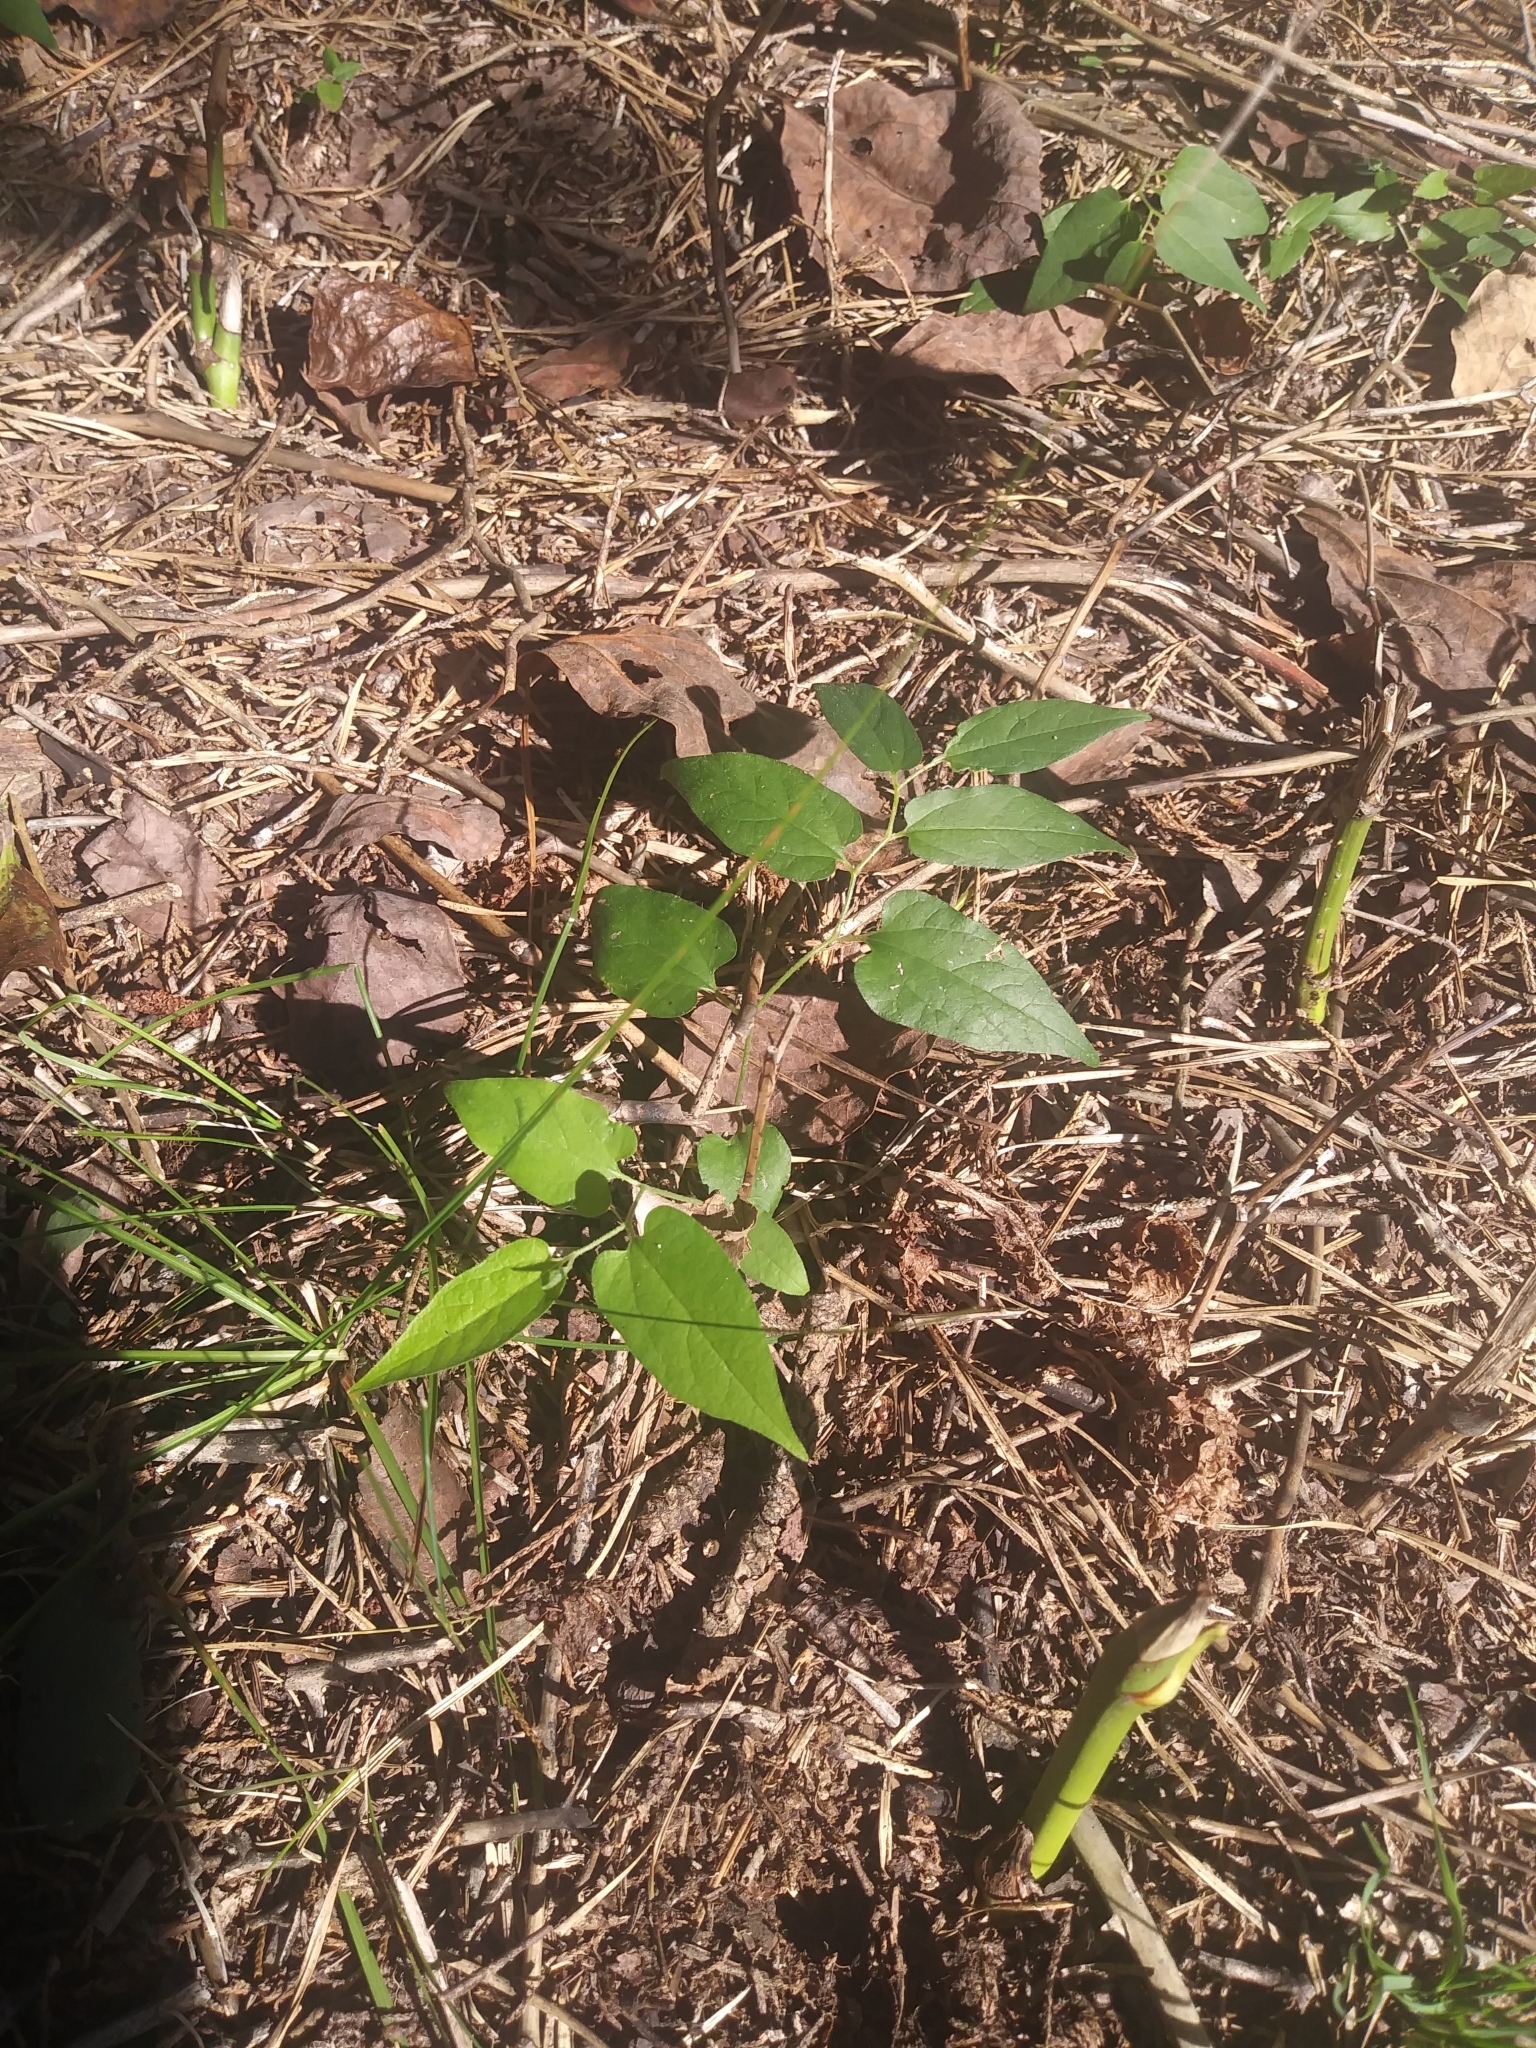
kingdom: Plantae
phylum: Tracheophyta
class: Magnoliopsida
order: Piperales
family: Aristolochiaceae
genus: Endodeca
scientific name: Endodeca serpentaria
